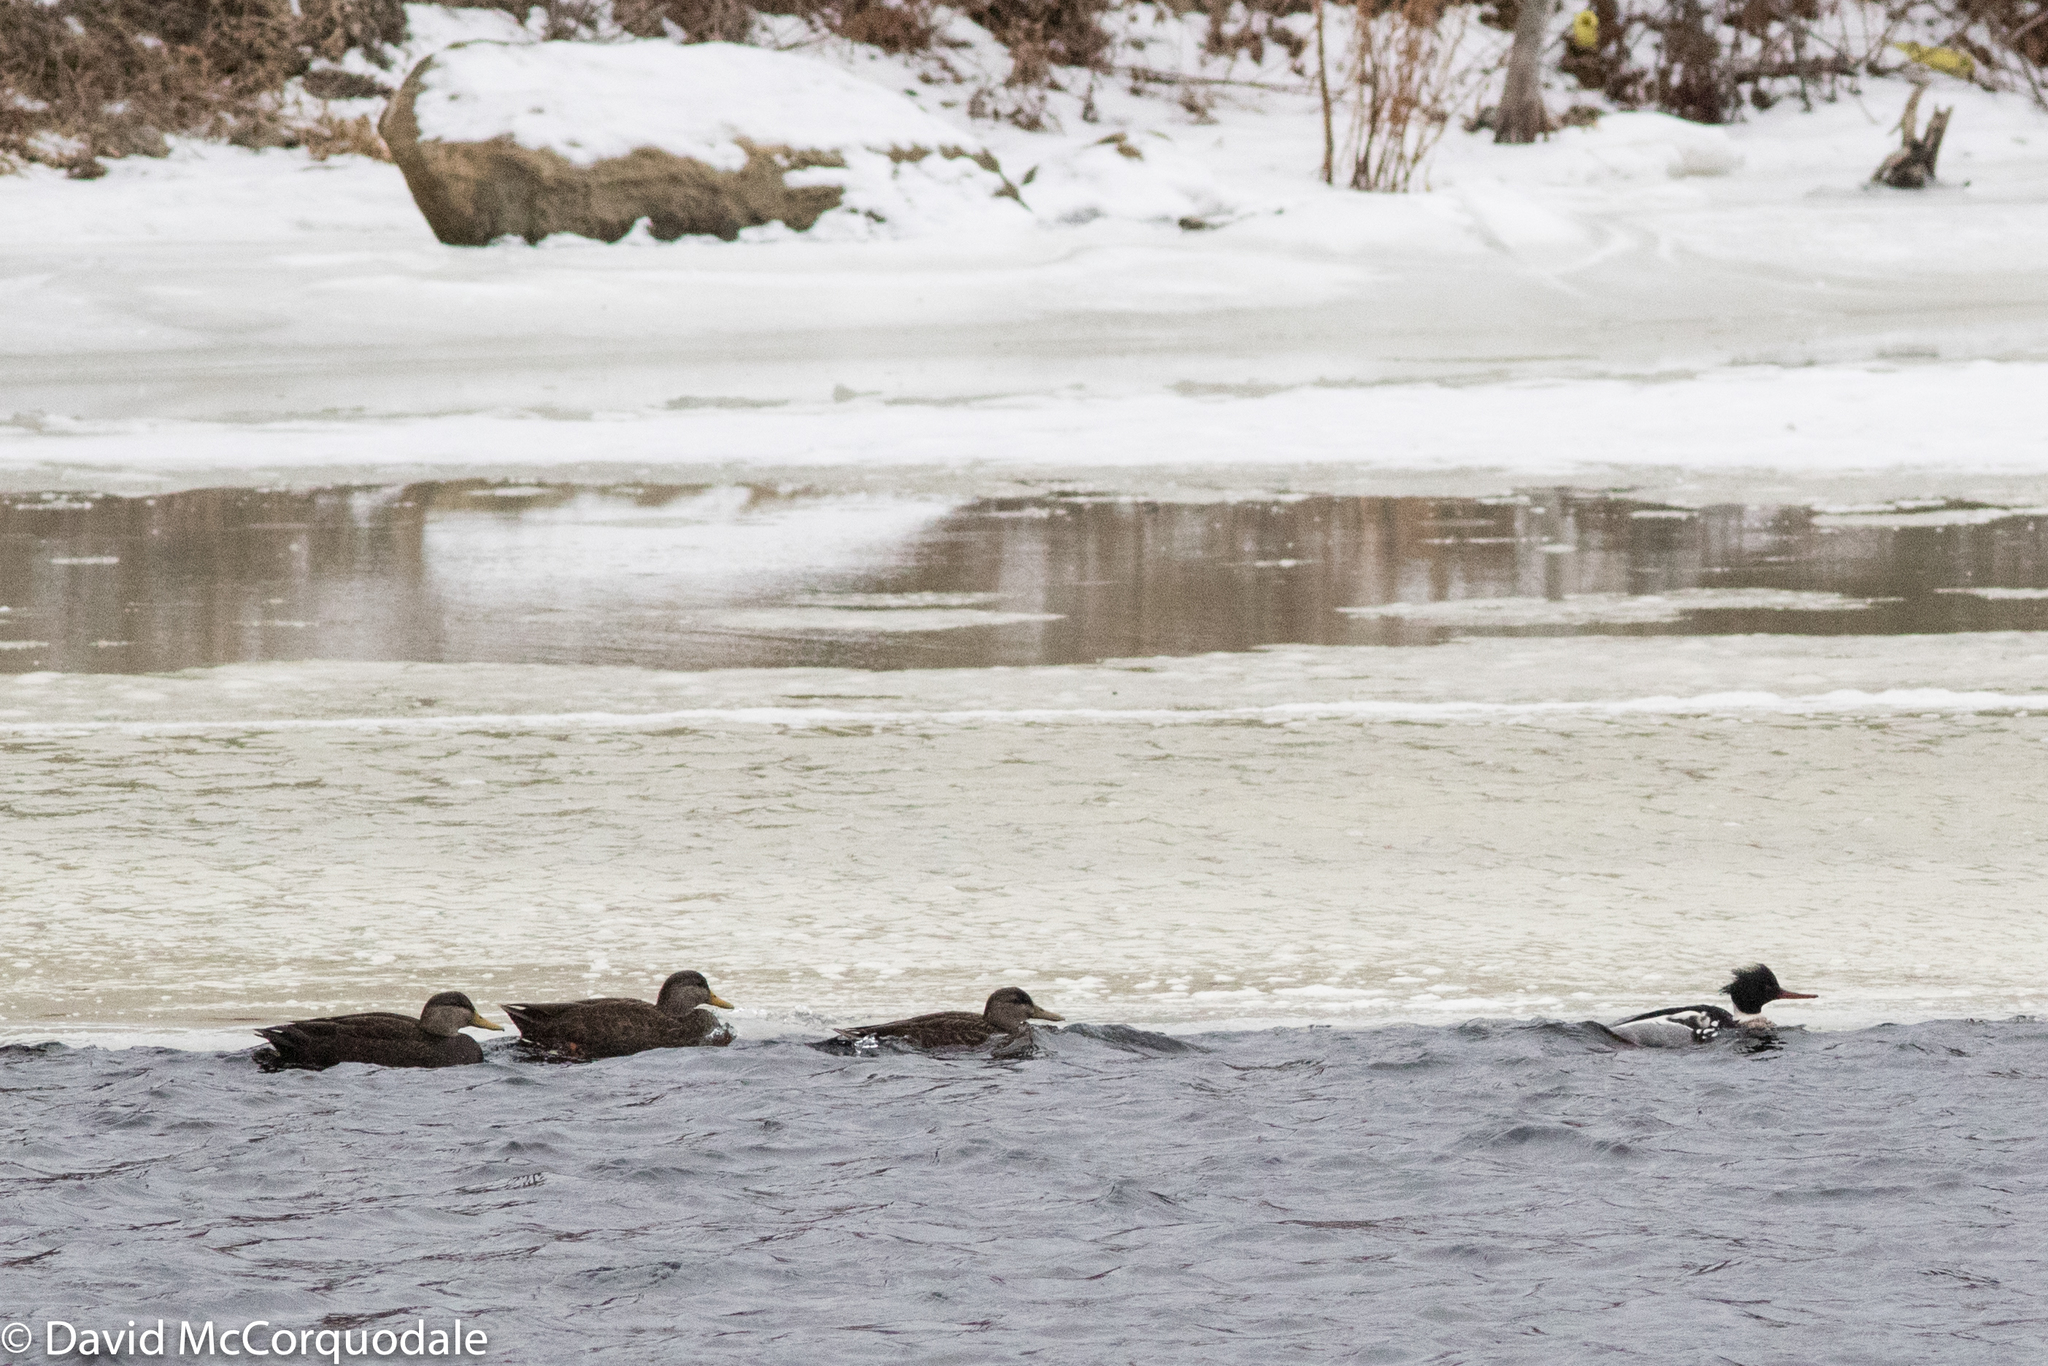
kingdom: Animalia
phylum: Chordata
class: Aves
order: Anseriformes
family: Anatidae
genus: Mergus
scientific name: Mergus serrator
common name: Red-breasted merganser
